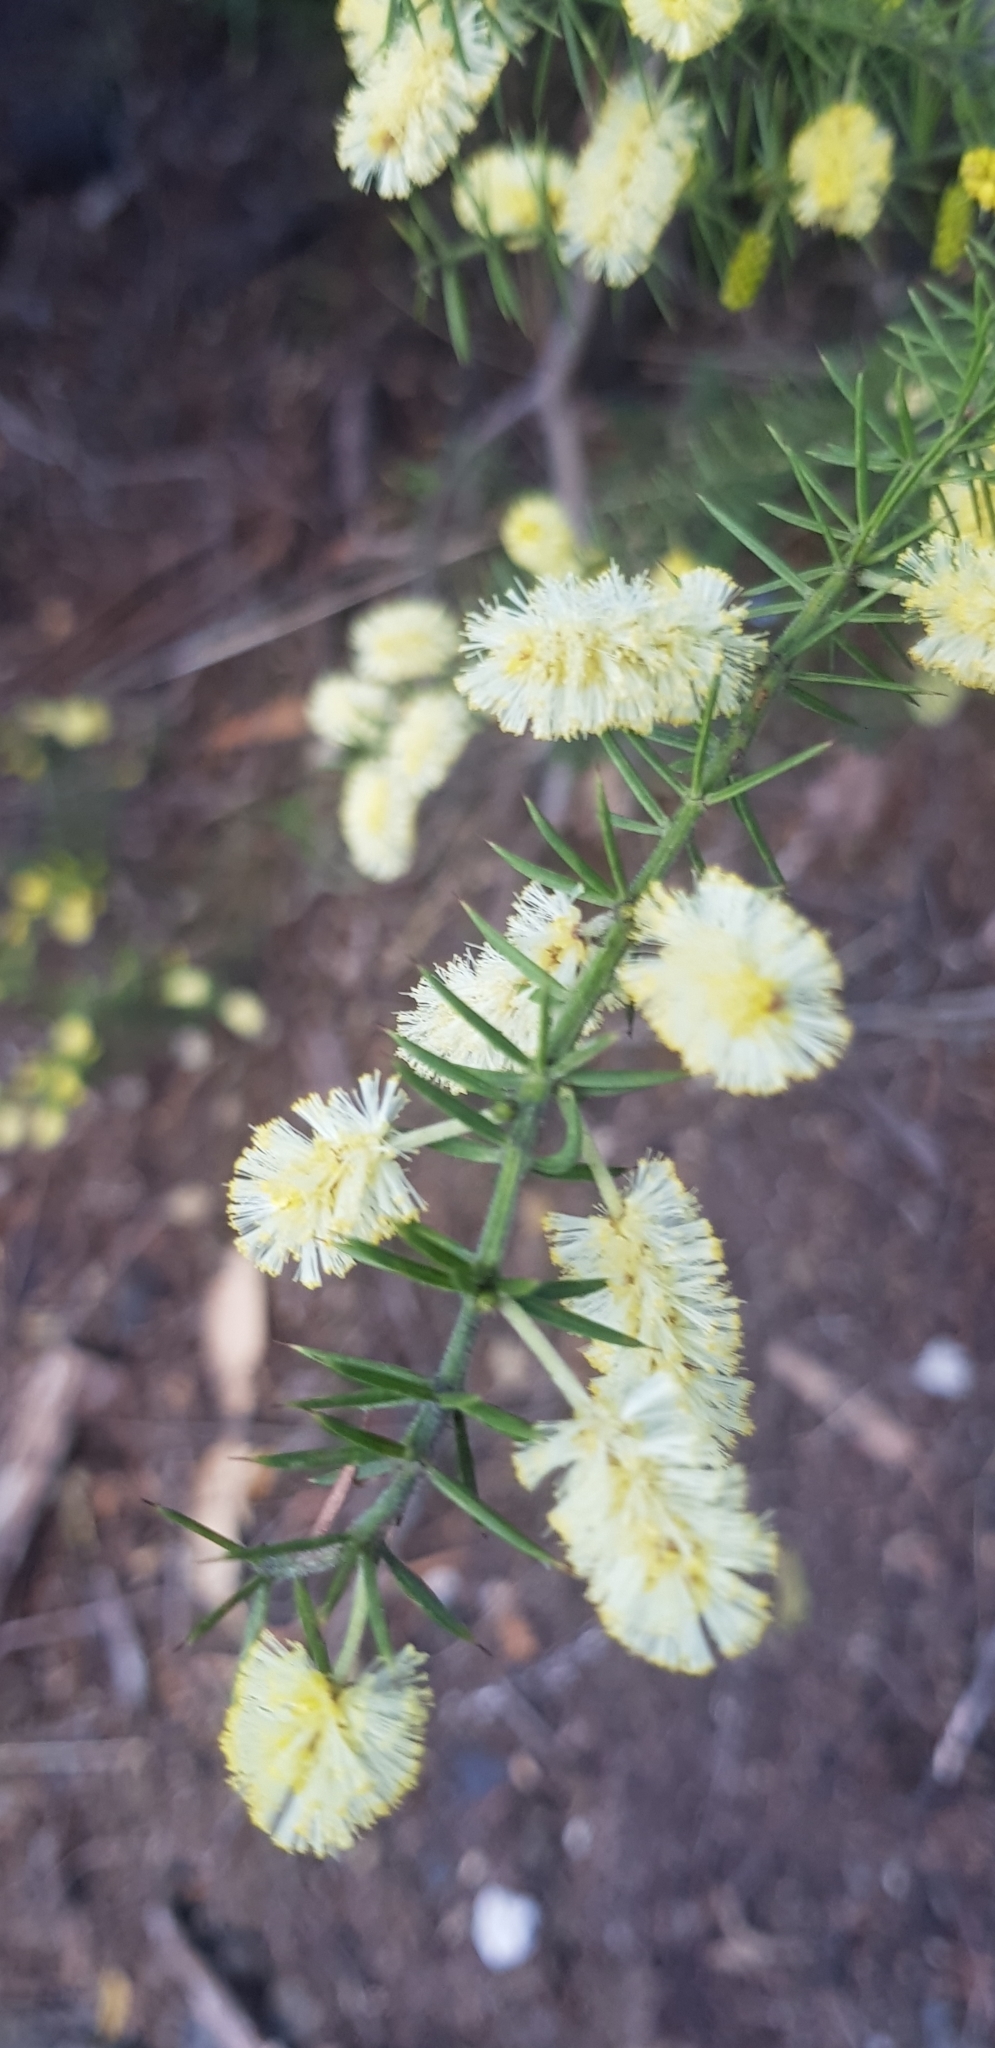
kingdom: Plantae
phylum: Tracheophyta
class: Magnoliopsida
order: Fabales
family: Fabaceae
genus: Acacia
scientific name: Acacia verticillata
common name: Prickly moses
